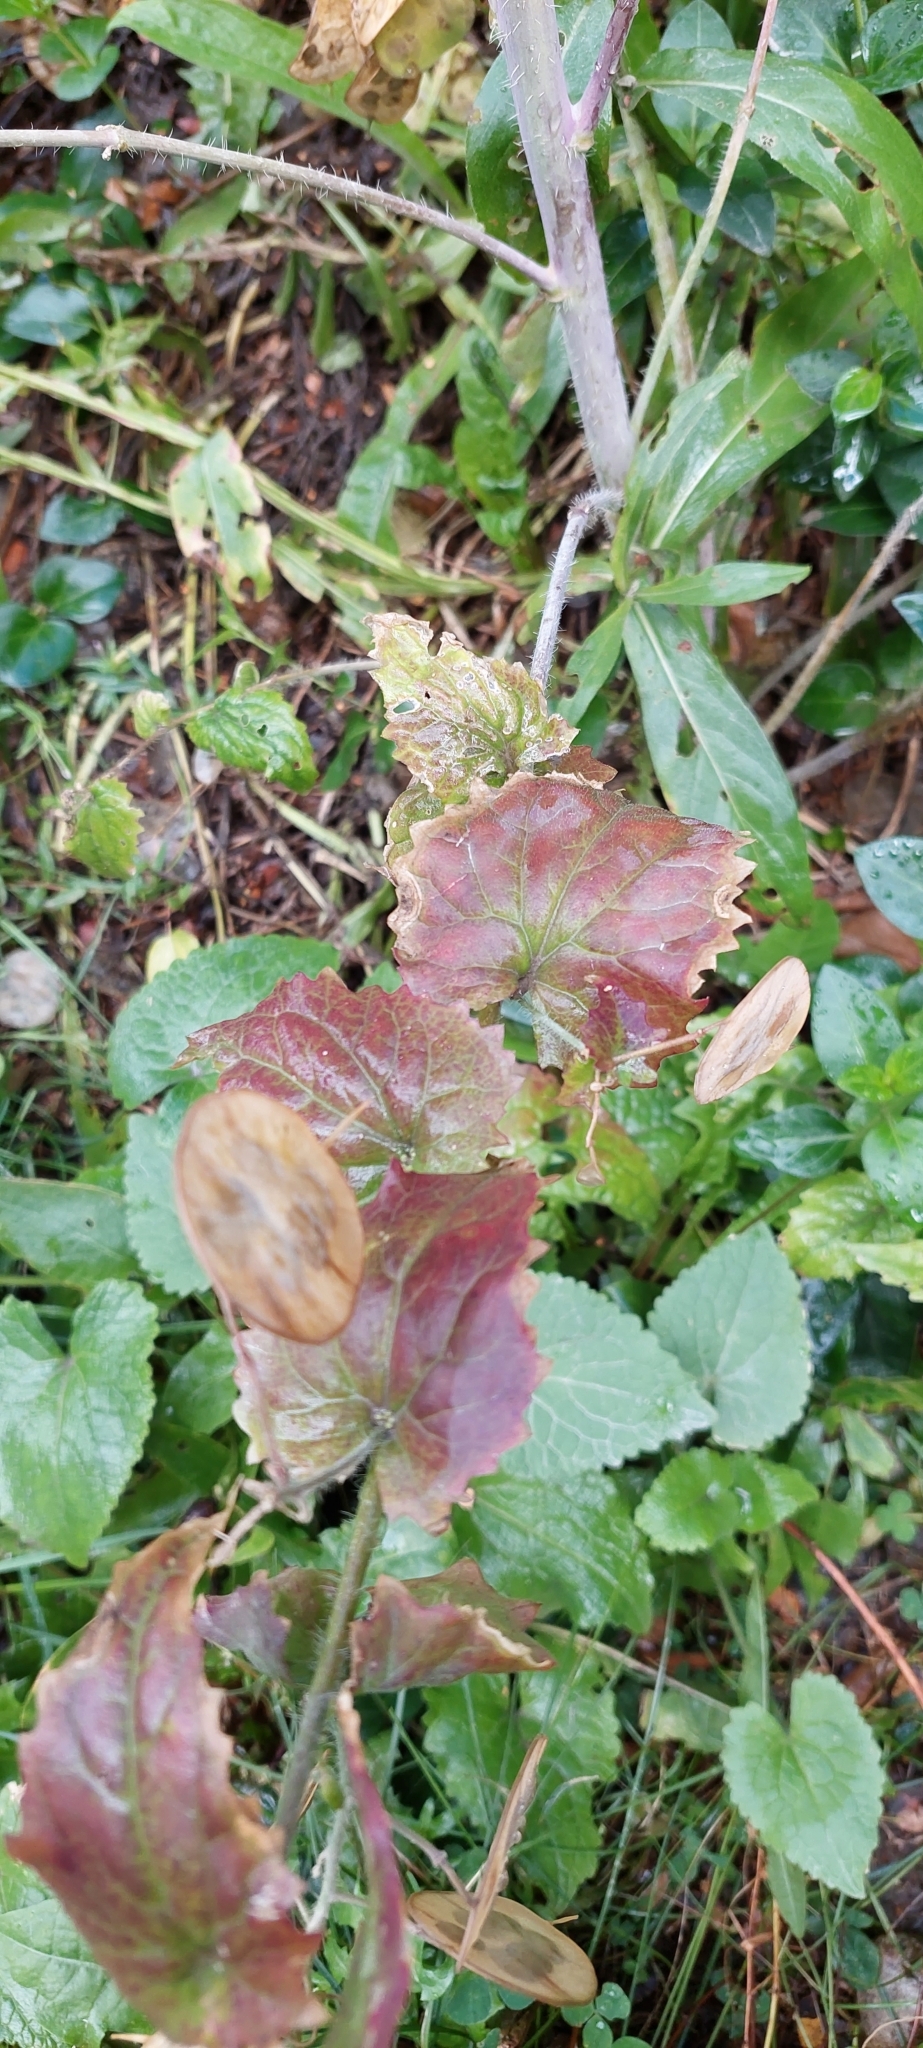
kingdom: Plantae
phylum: Tracheophyta
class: Magnoliopsida
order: Brassicales
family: Brassicaceae
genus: Lunaria
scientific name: Lunaria annua
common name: Honesty
